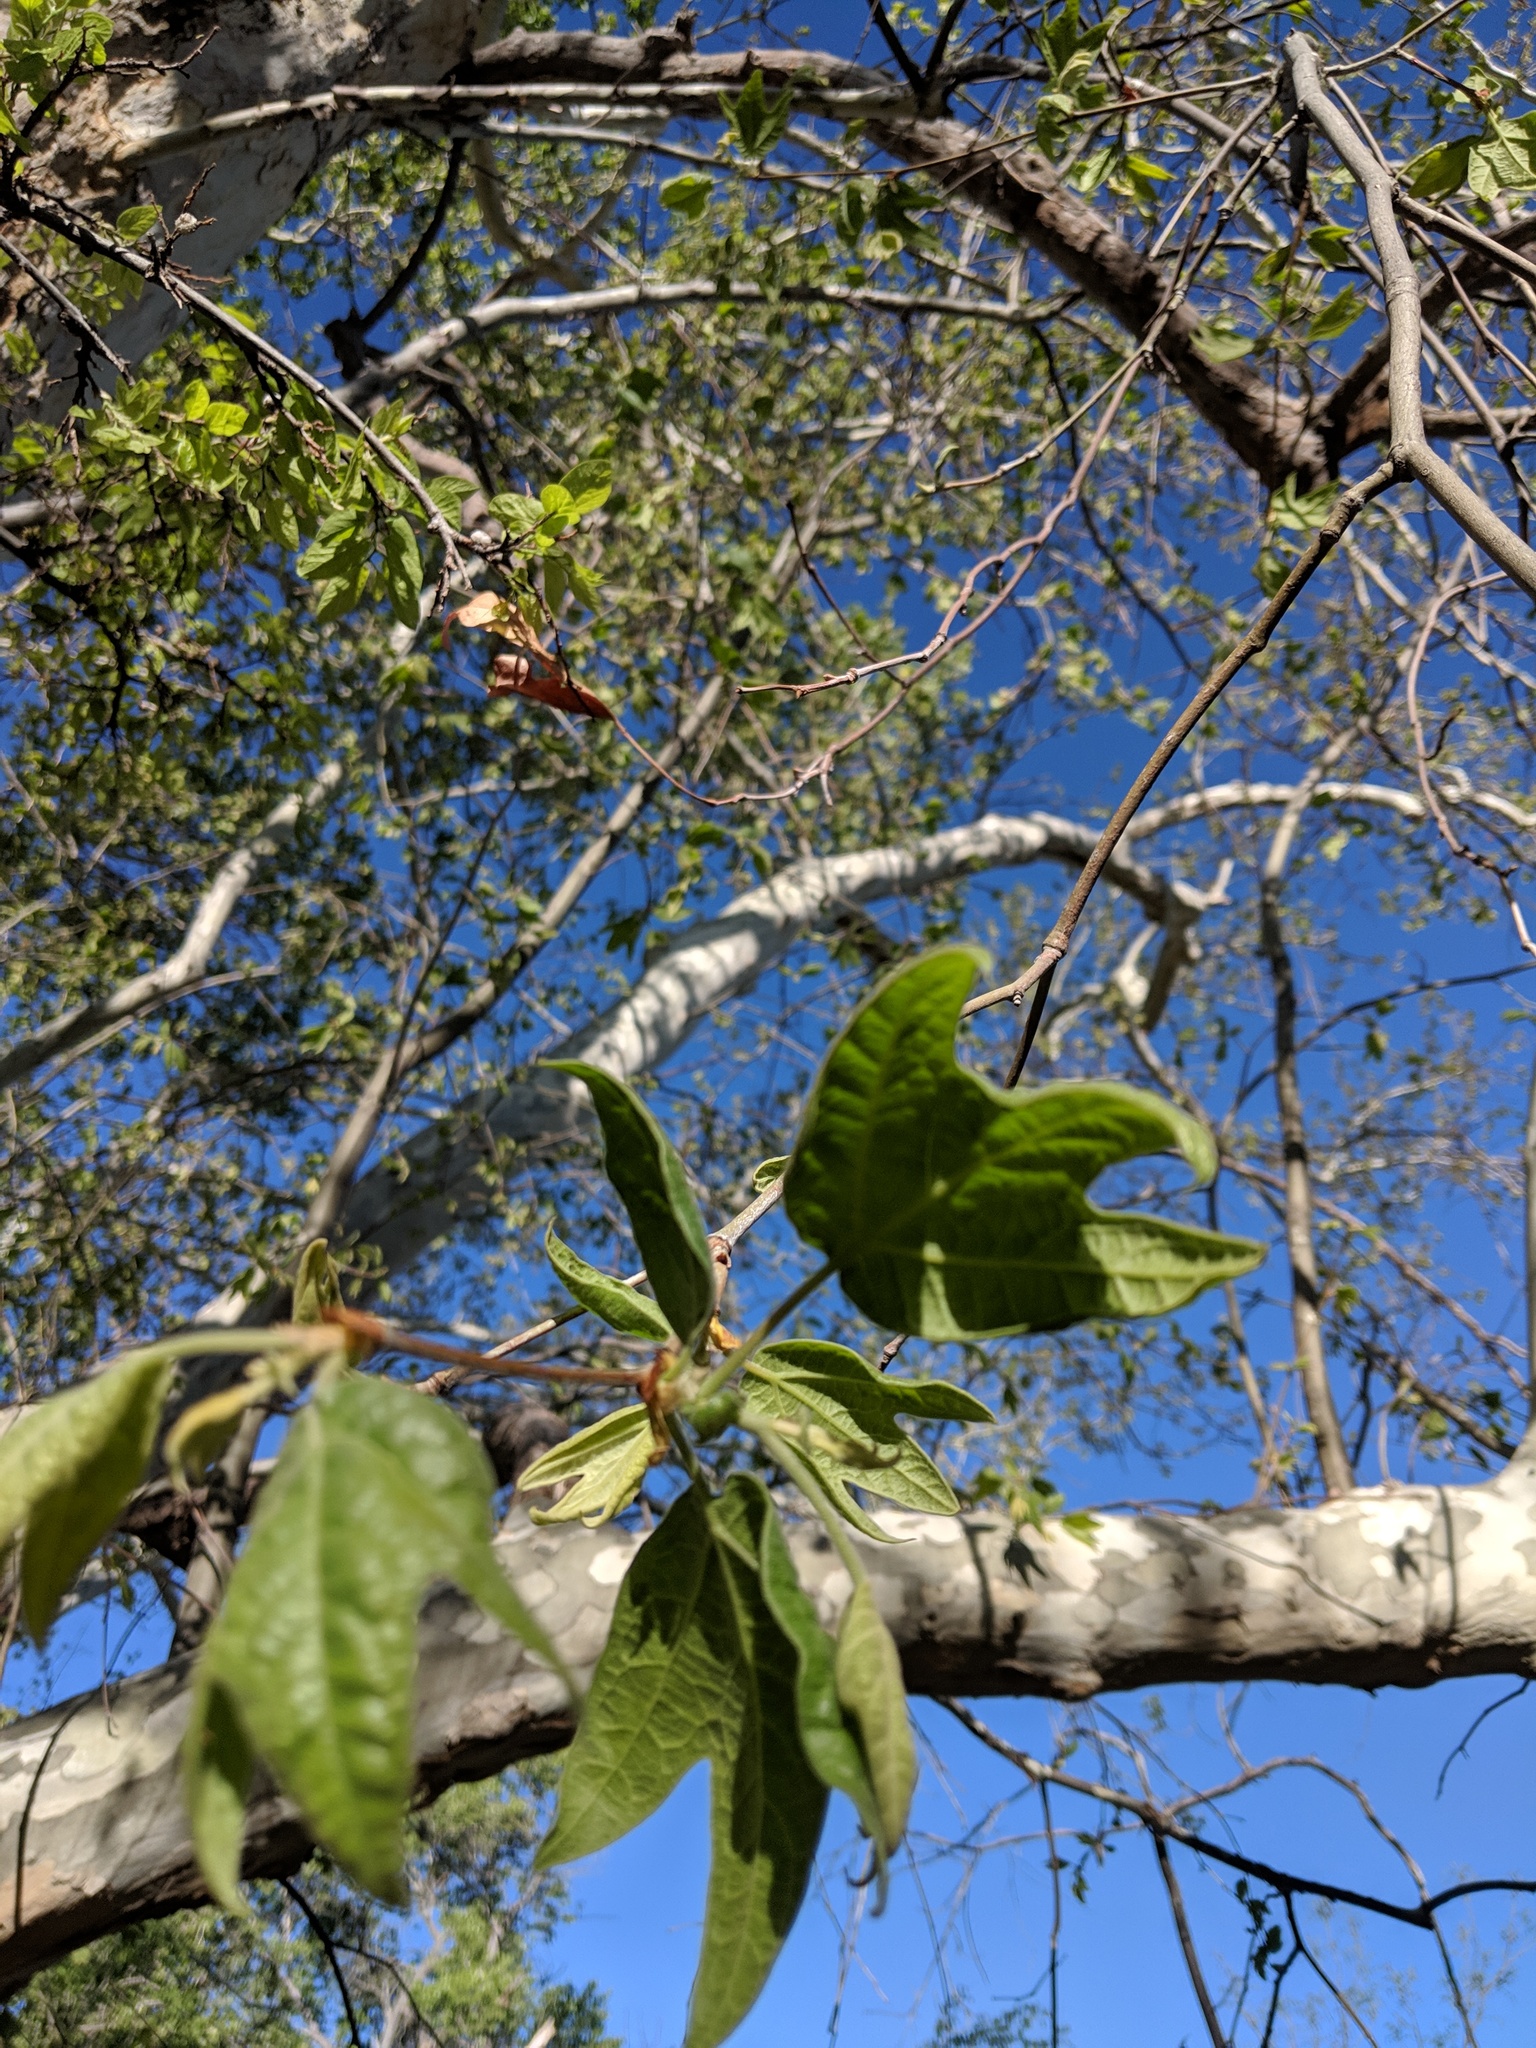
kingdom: Plantae
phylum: Tracheophyta
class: Magnoliopsida
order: Proteales
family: Platanaceae
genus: Platanus
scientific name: Platanus wrightii
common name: Arizona sycamore
